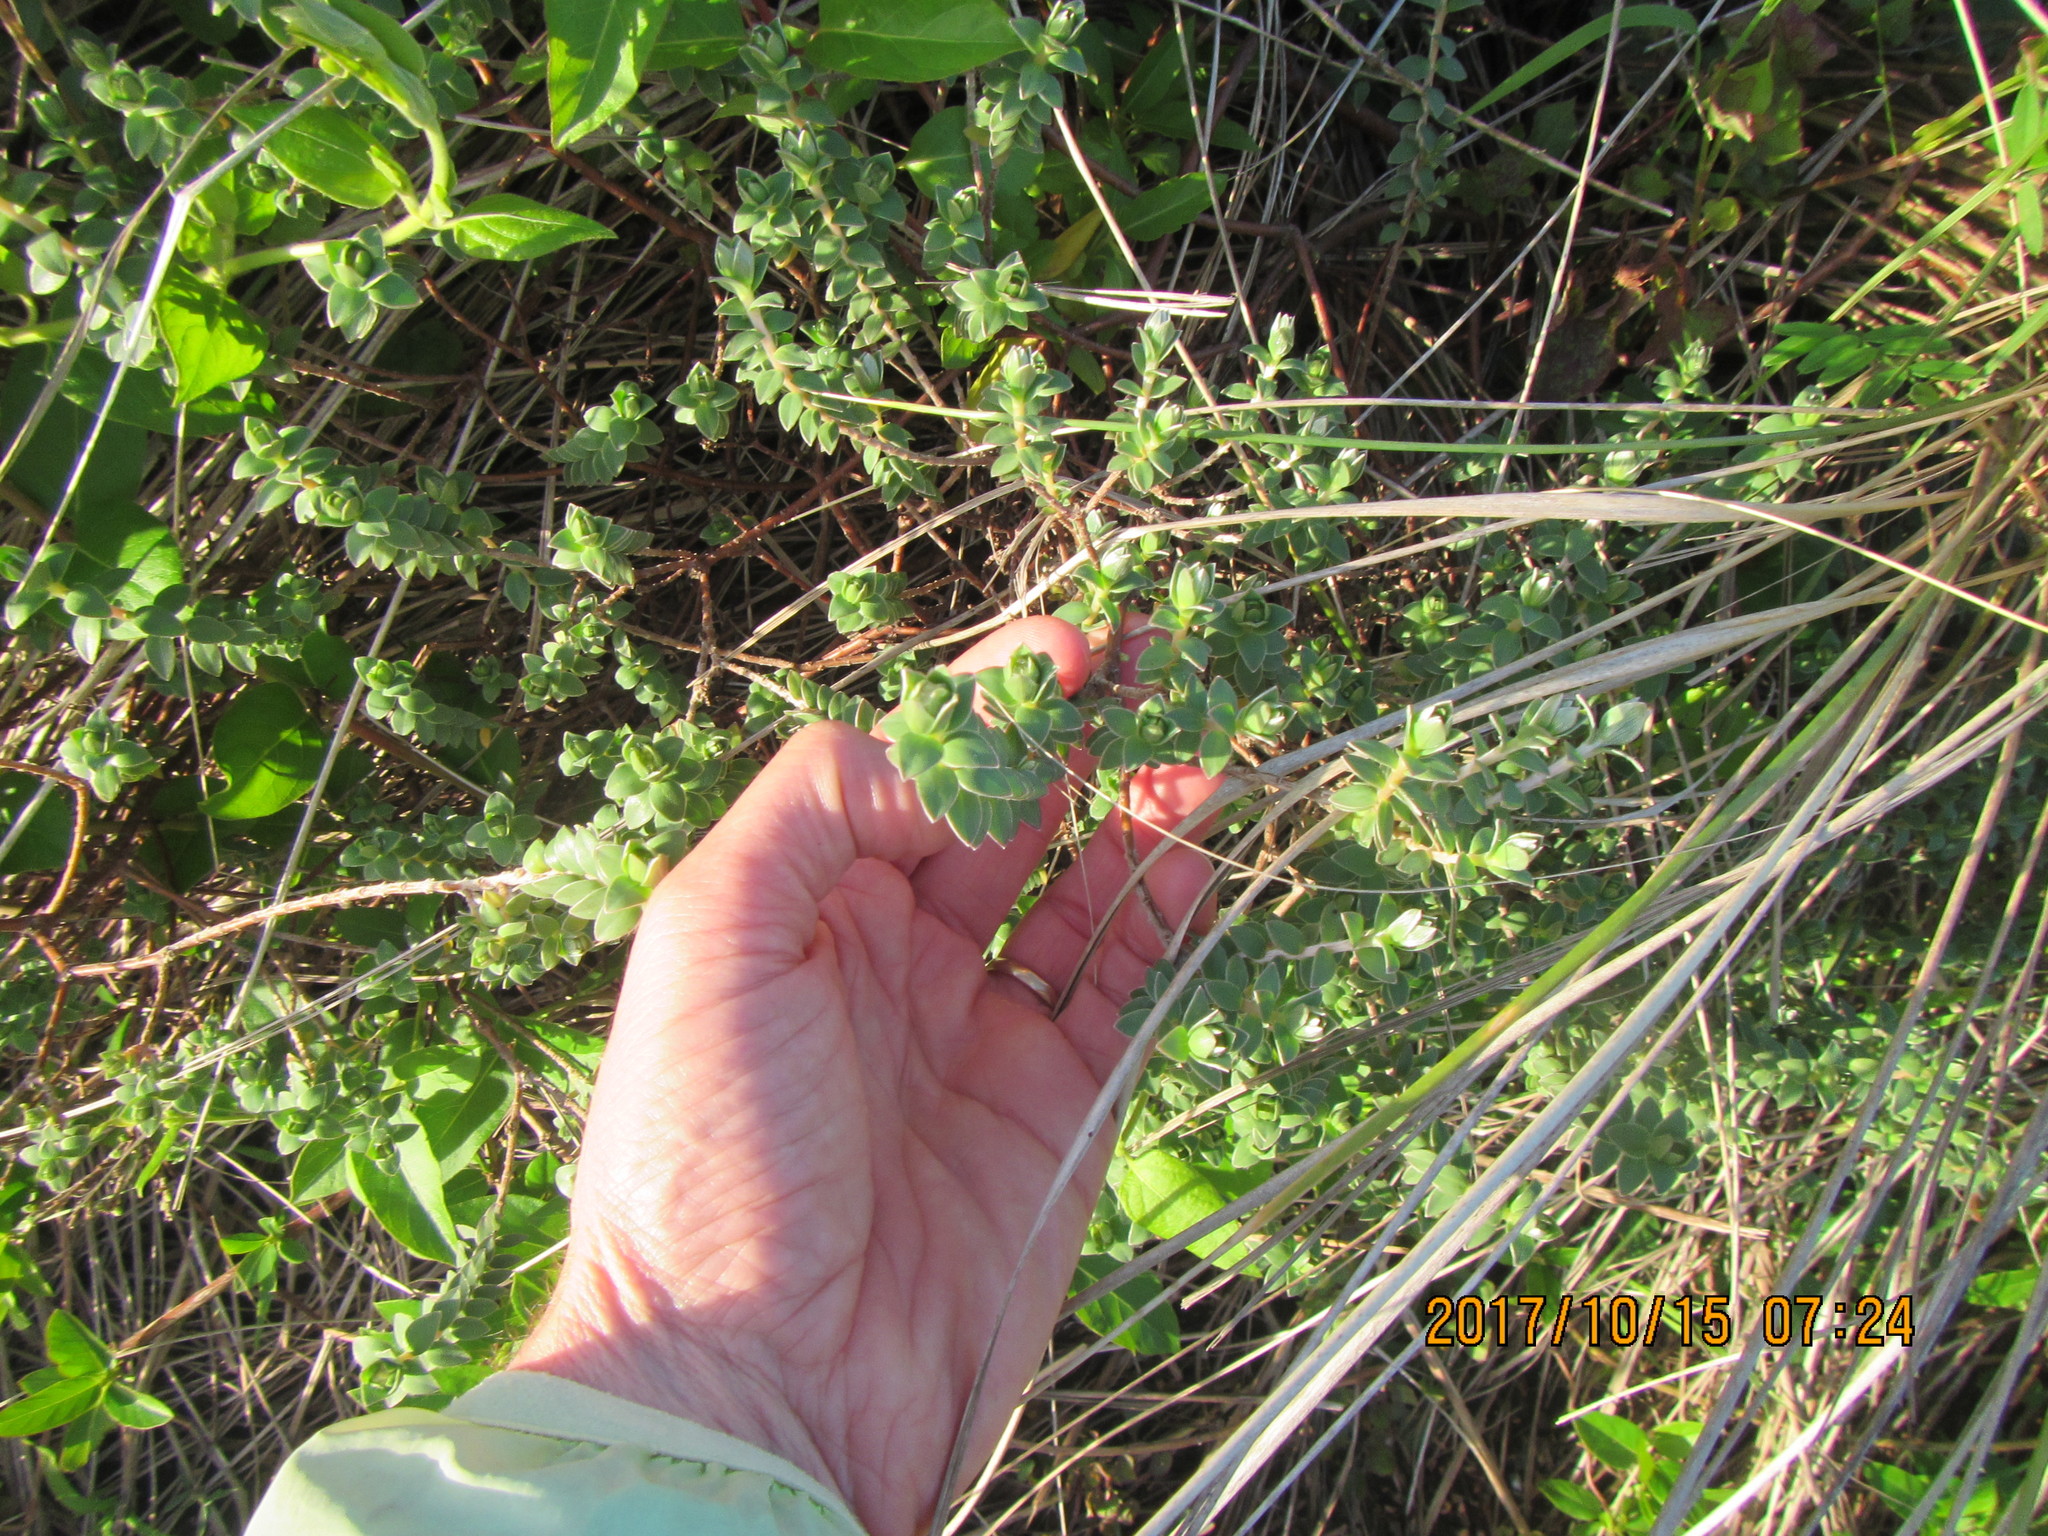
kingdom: Plantae
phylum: Tracheophyta
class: Magnoliopsida
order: Malvales
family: Thymelaeaceae
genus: Pimelea
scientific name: Pimelea villosa
